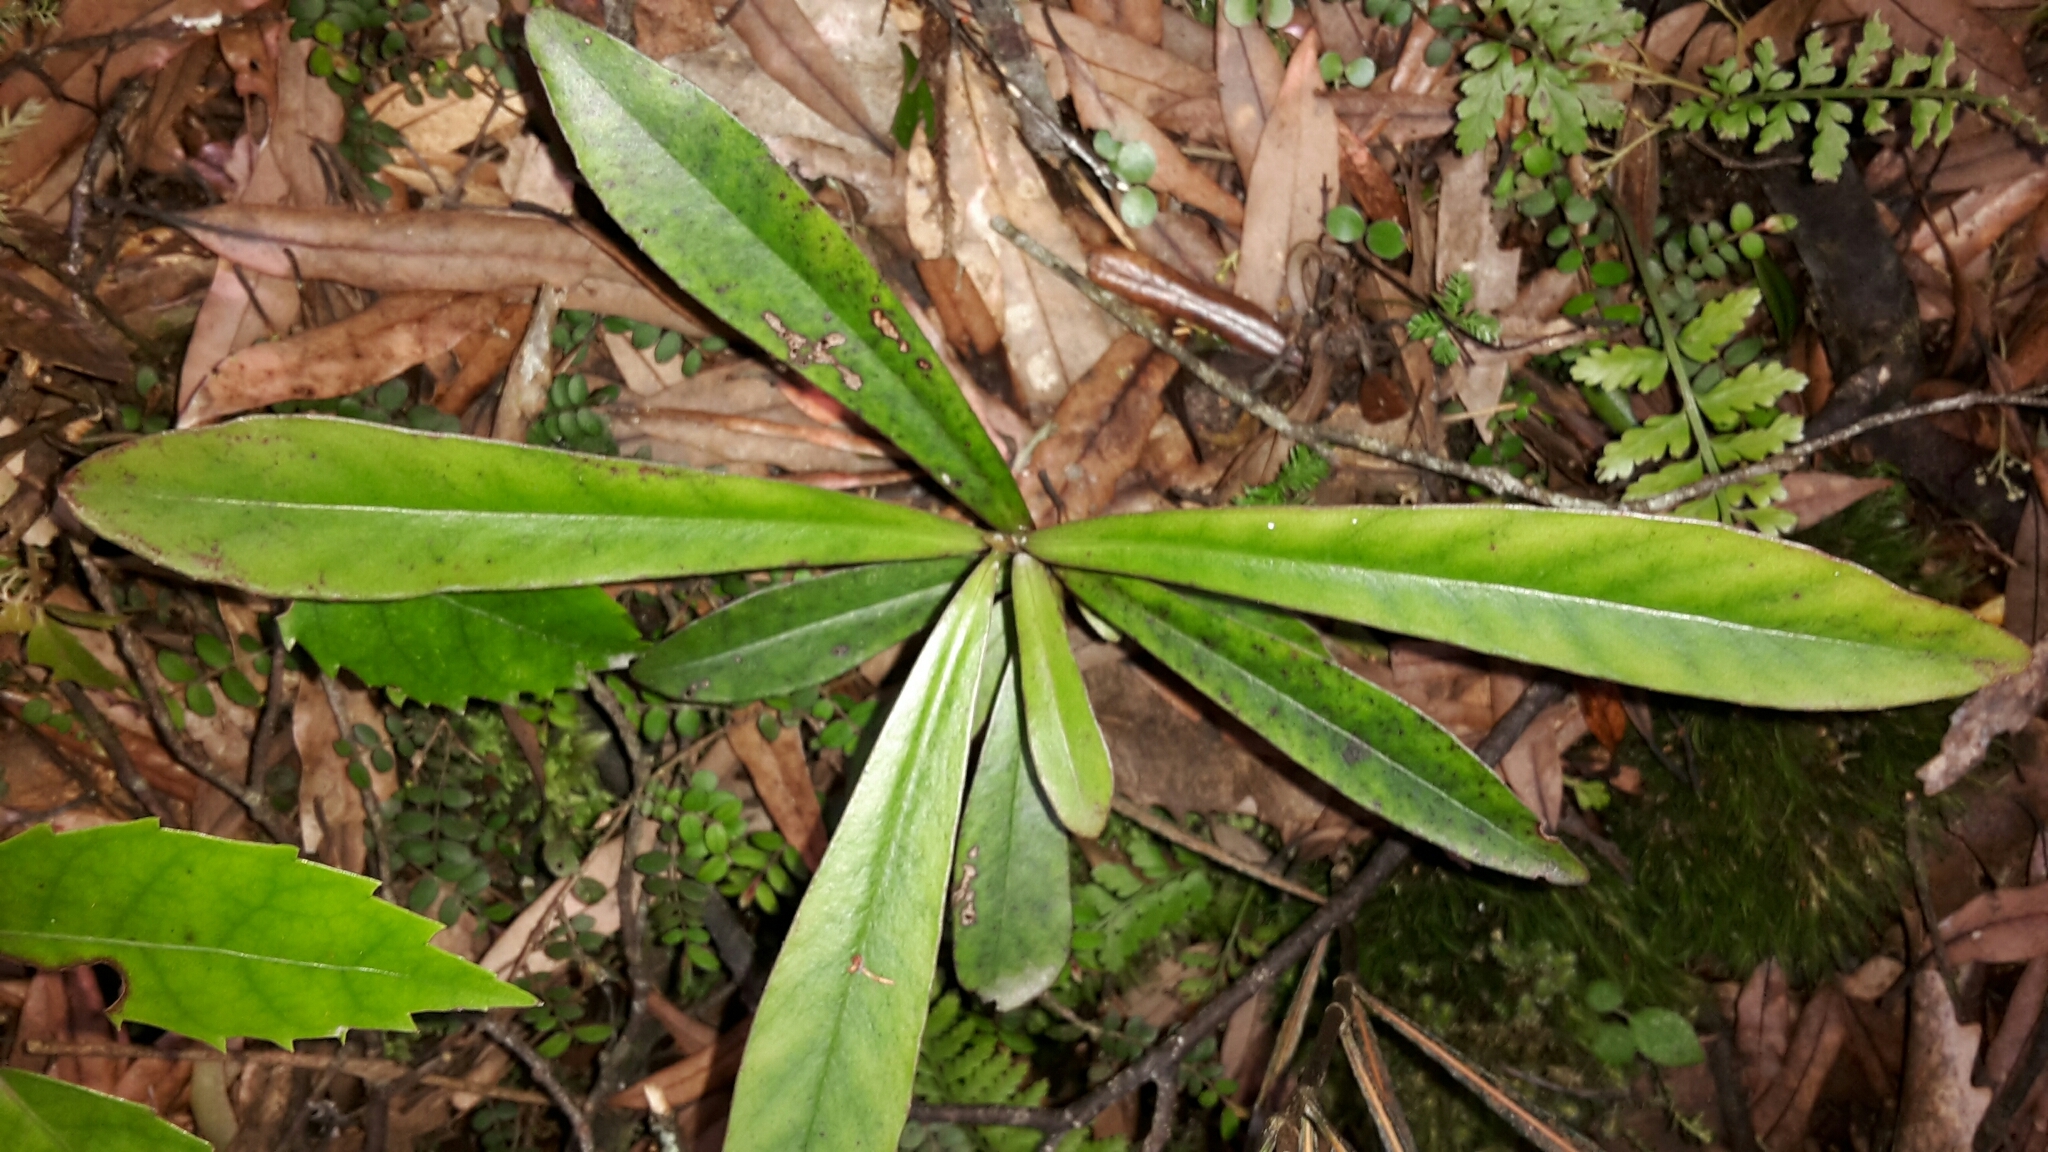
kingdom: Plantae
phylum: Tracheophyta
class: Magnoliopsida
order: Ericales
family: Primulaceae
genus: Myrsine
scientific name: Myrsine salicina
